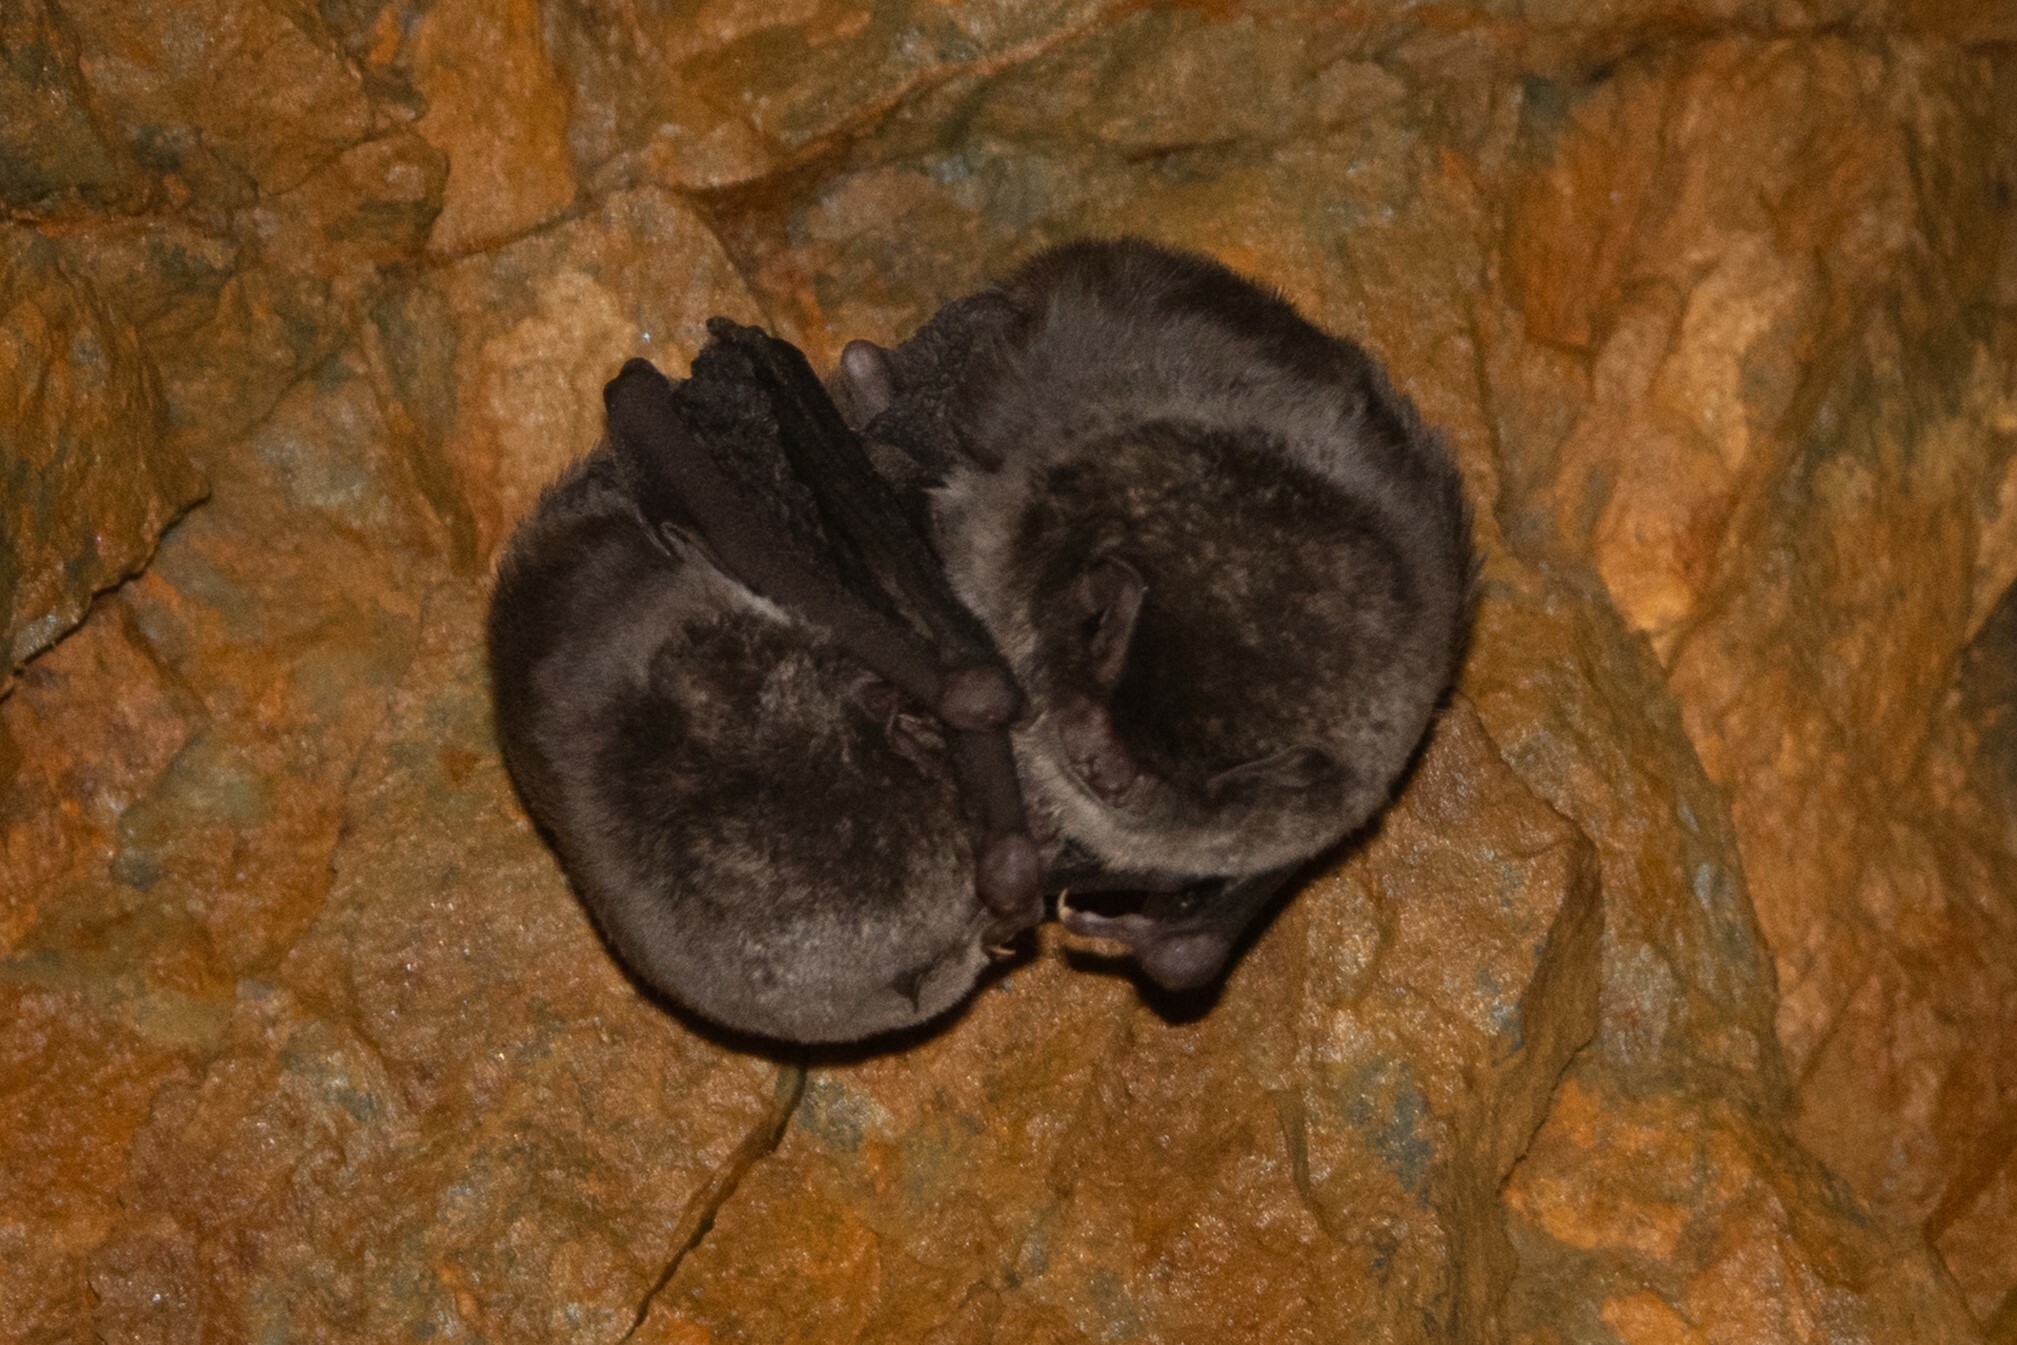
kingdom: Animalia
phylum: Chordata
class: Mammalia
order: Chiroptera
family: Miniopteridae
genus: Miniopterus
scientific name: Miniopterus schreibersii
